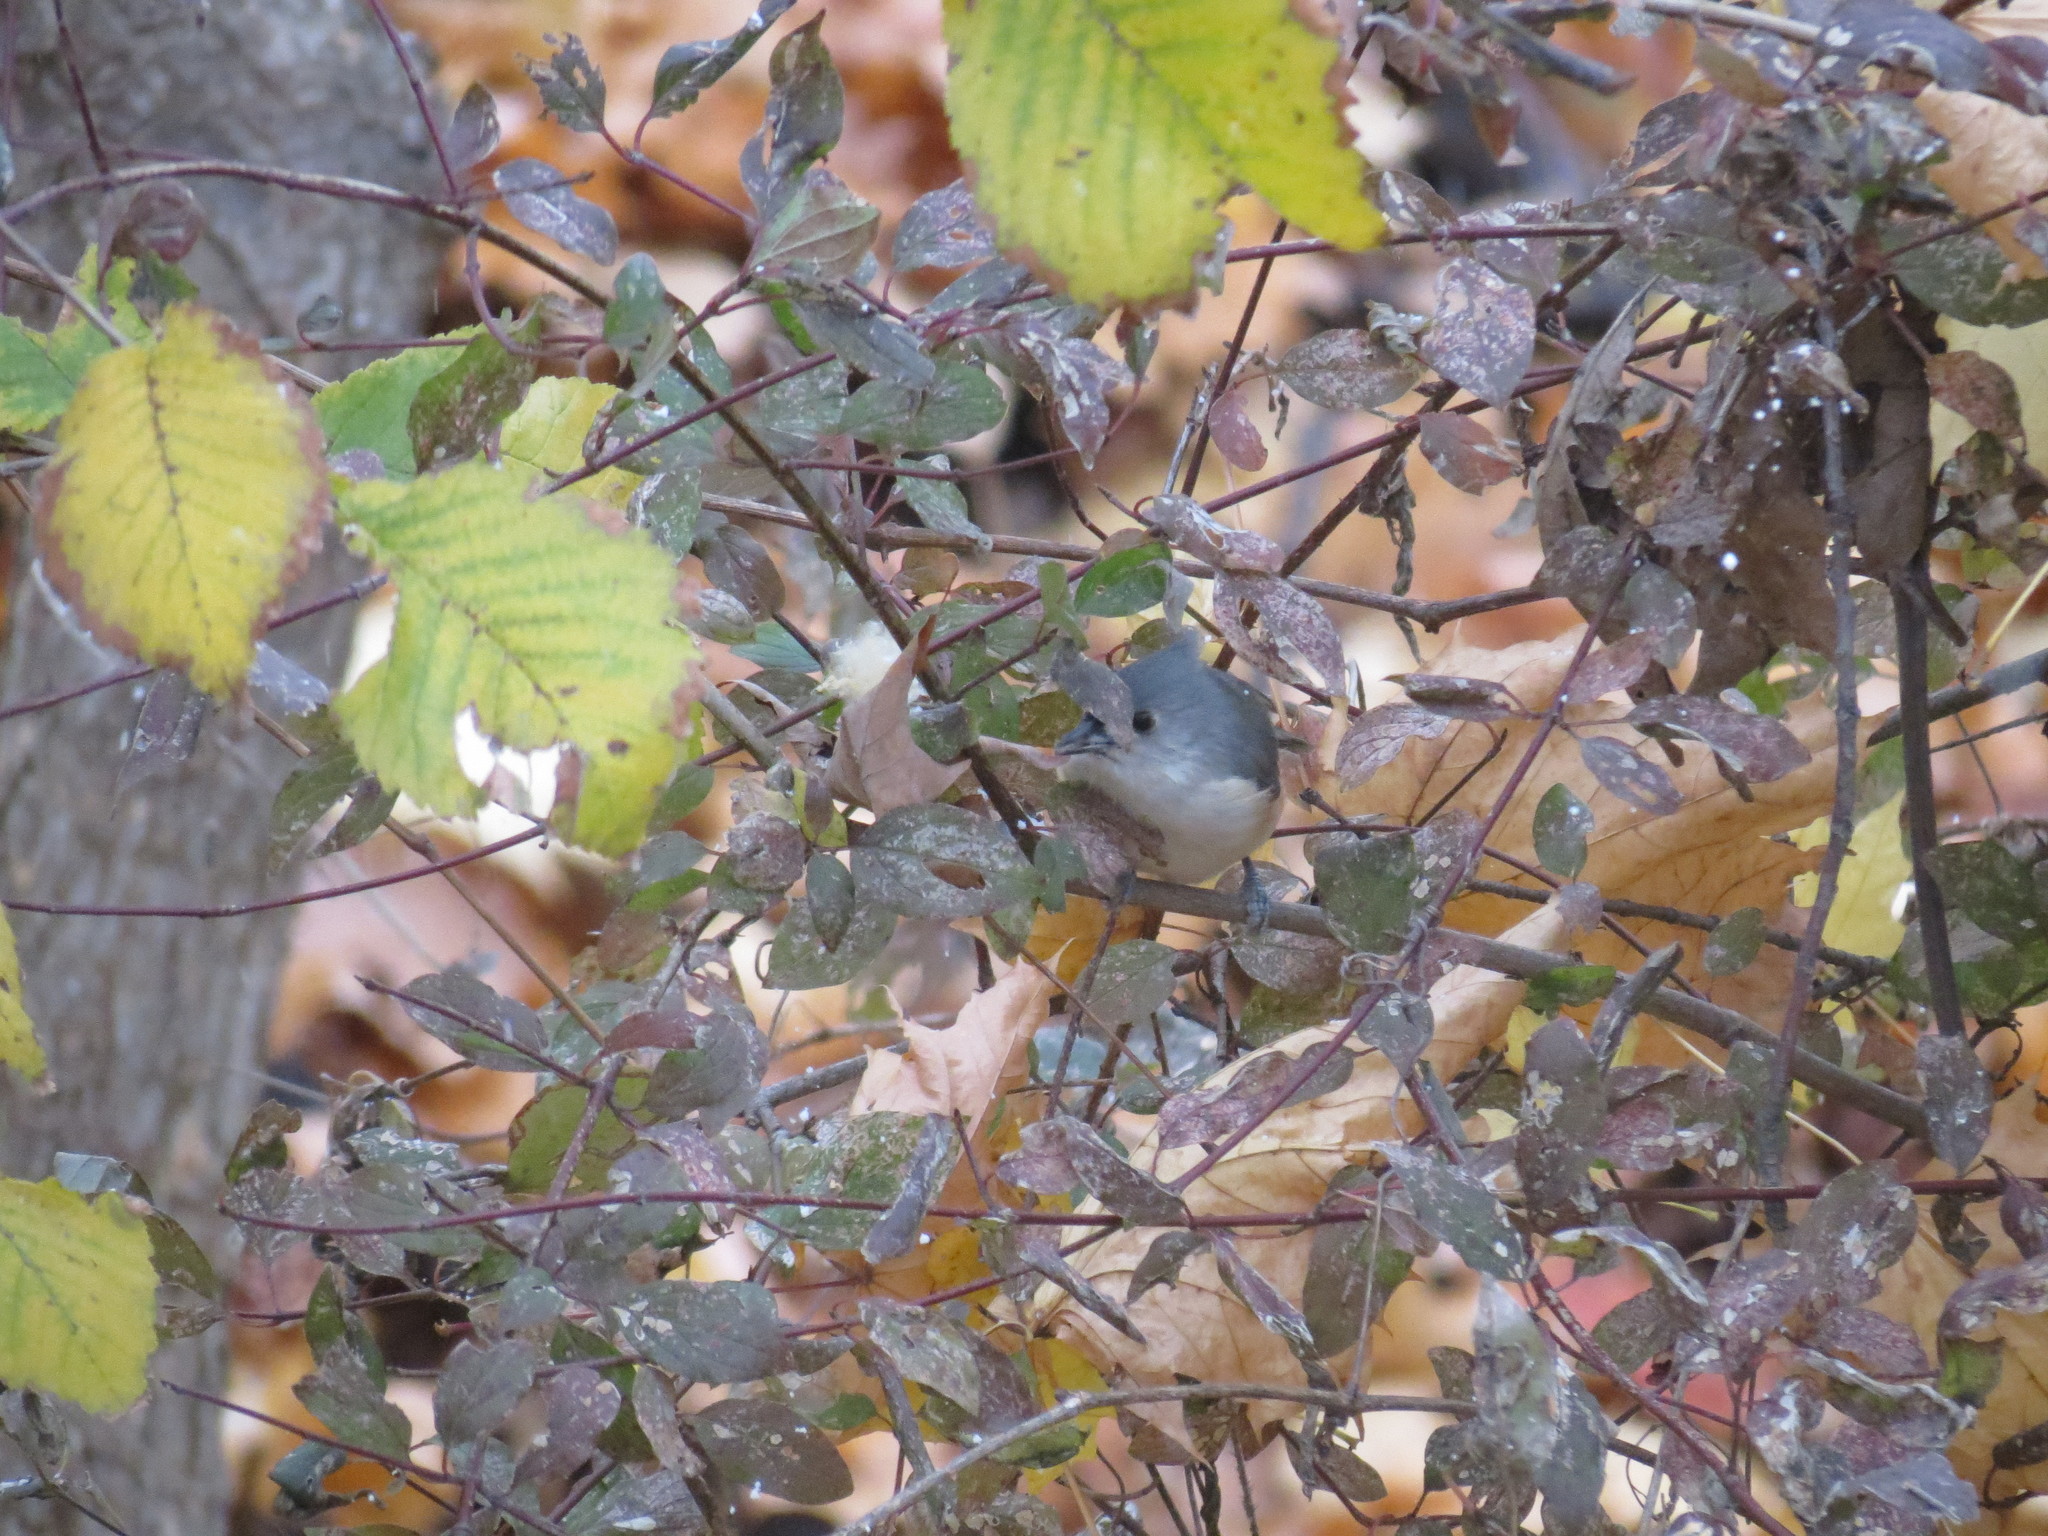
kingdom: Animalia
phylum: Chordata
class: Aves
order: Passeriformes
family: Paridae
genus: Baeolophus
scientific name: Baeolophus bicolor
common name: Tufted titmouse
